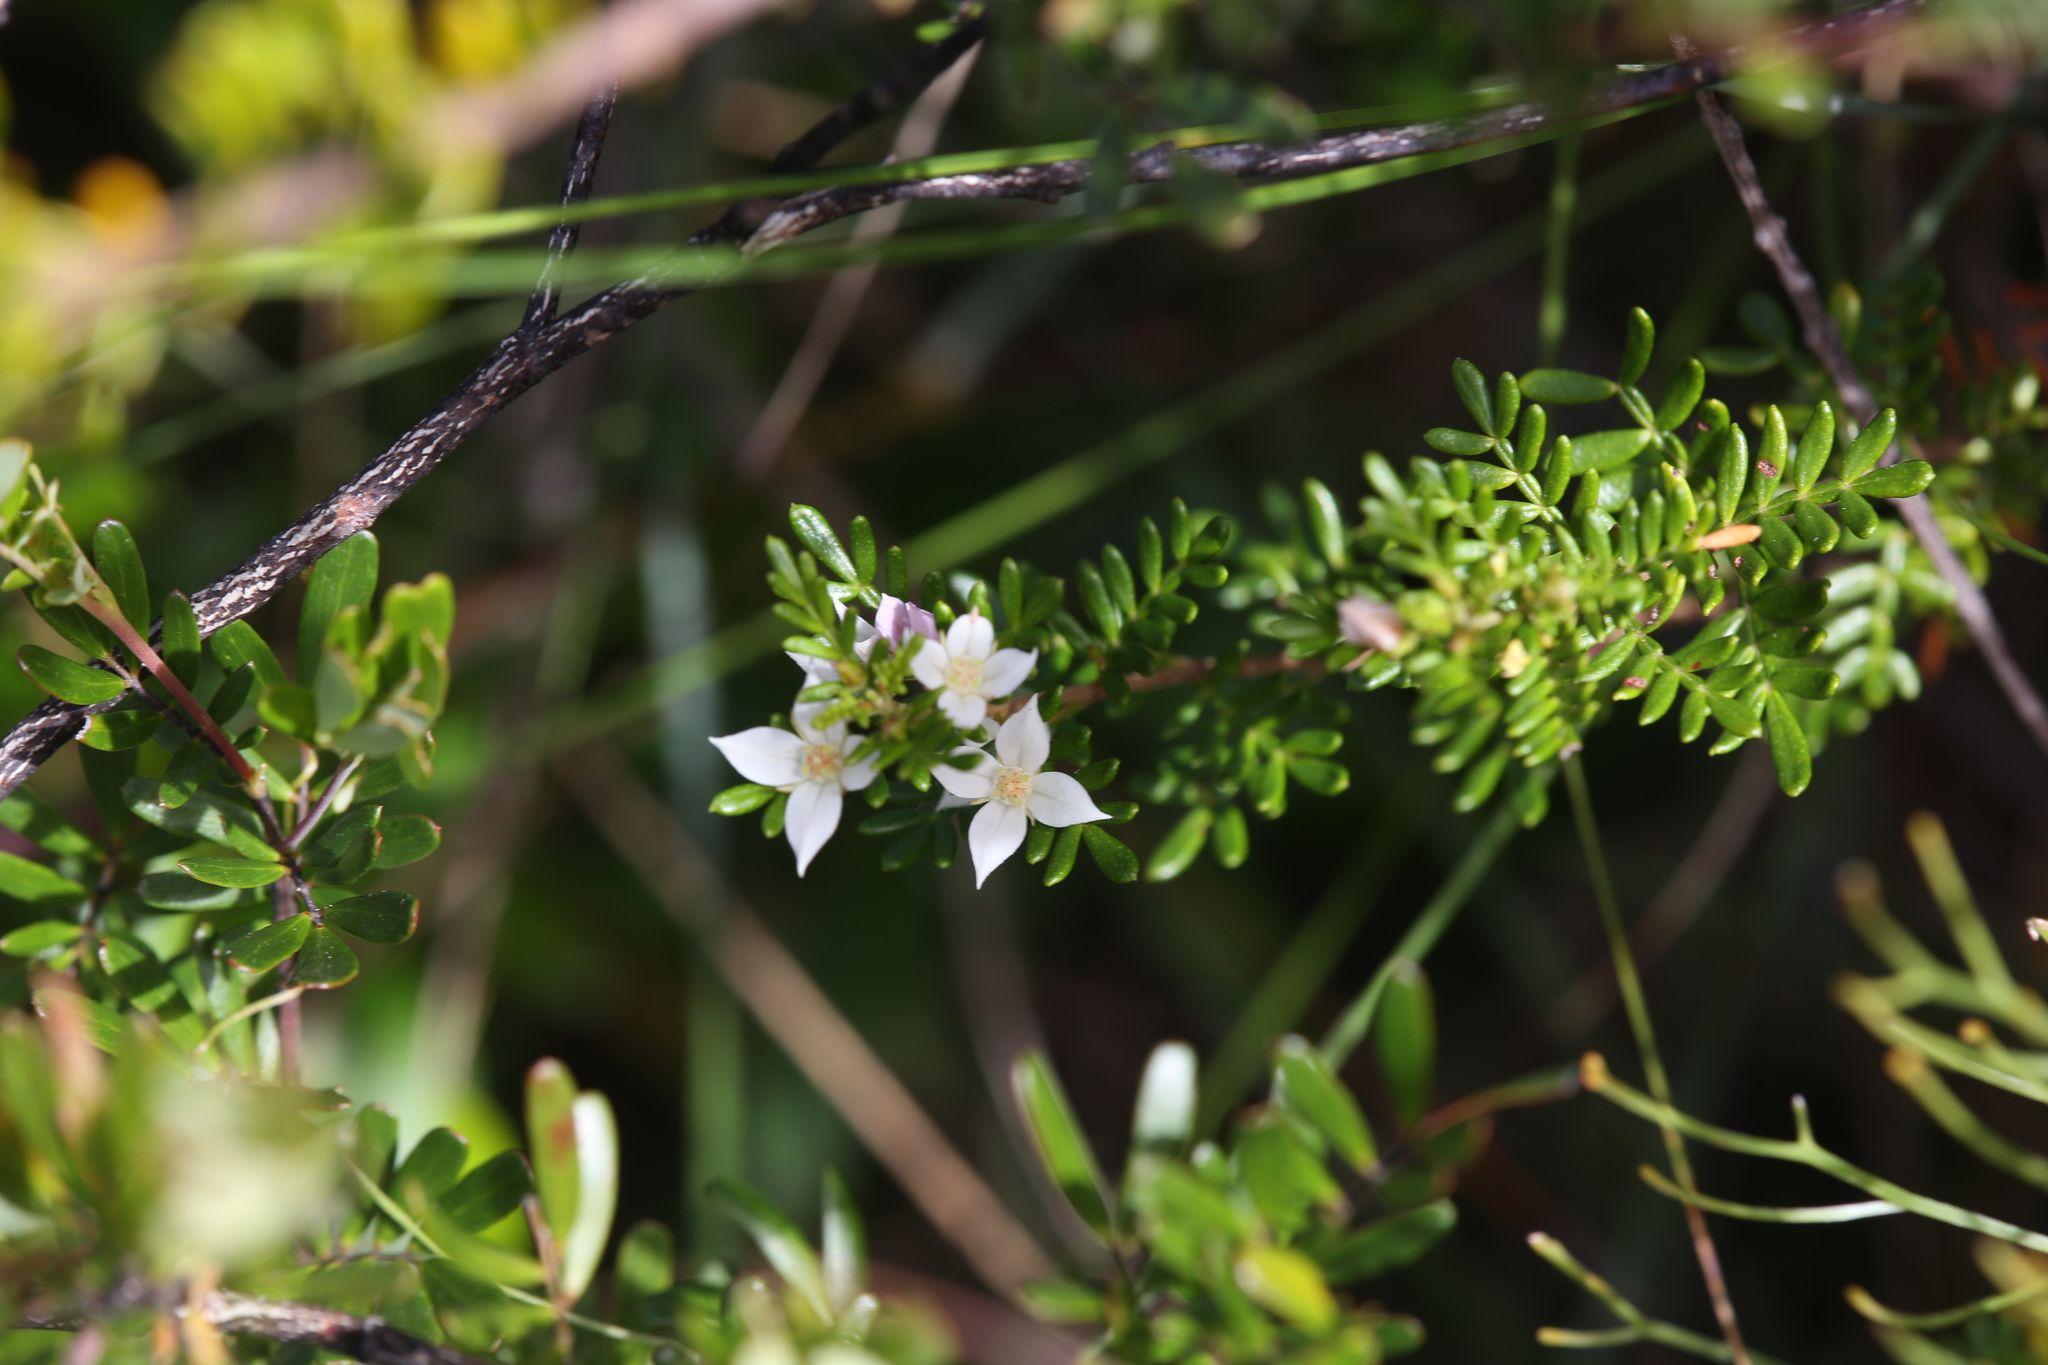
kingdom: Plantae
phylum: Tracheophyta
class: Magnoliopsida
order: Sapindales
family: Rutaceae
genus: Boronia
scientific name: Boronia alulata
